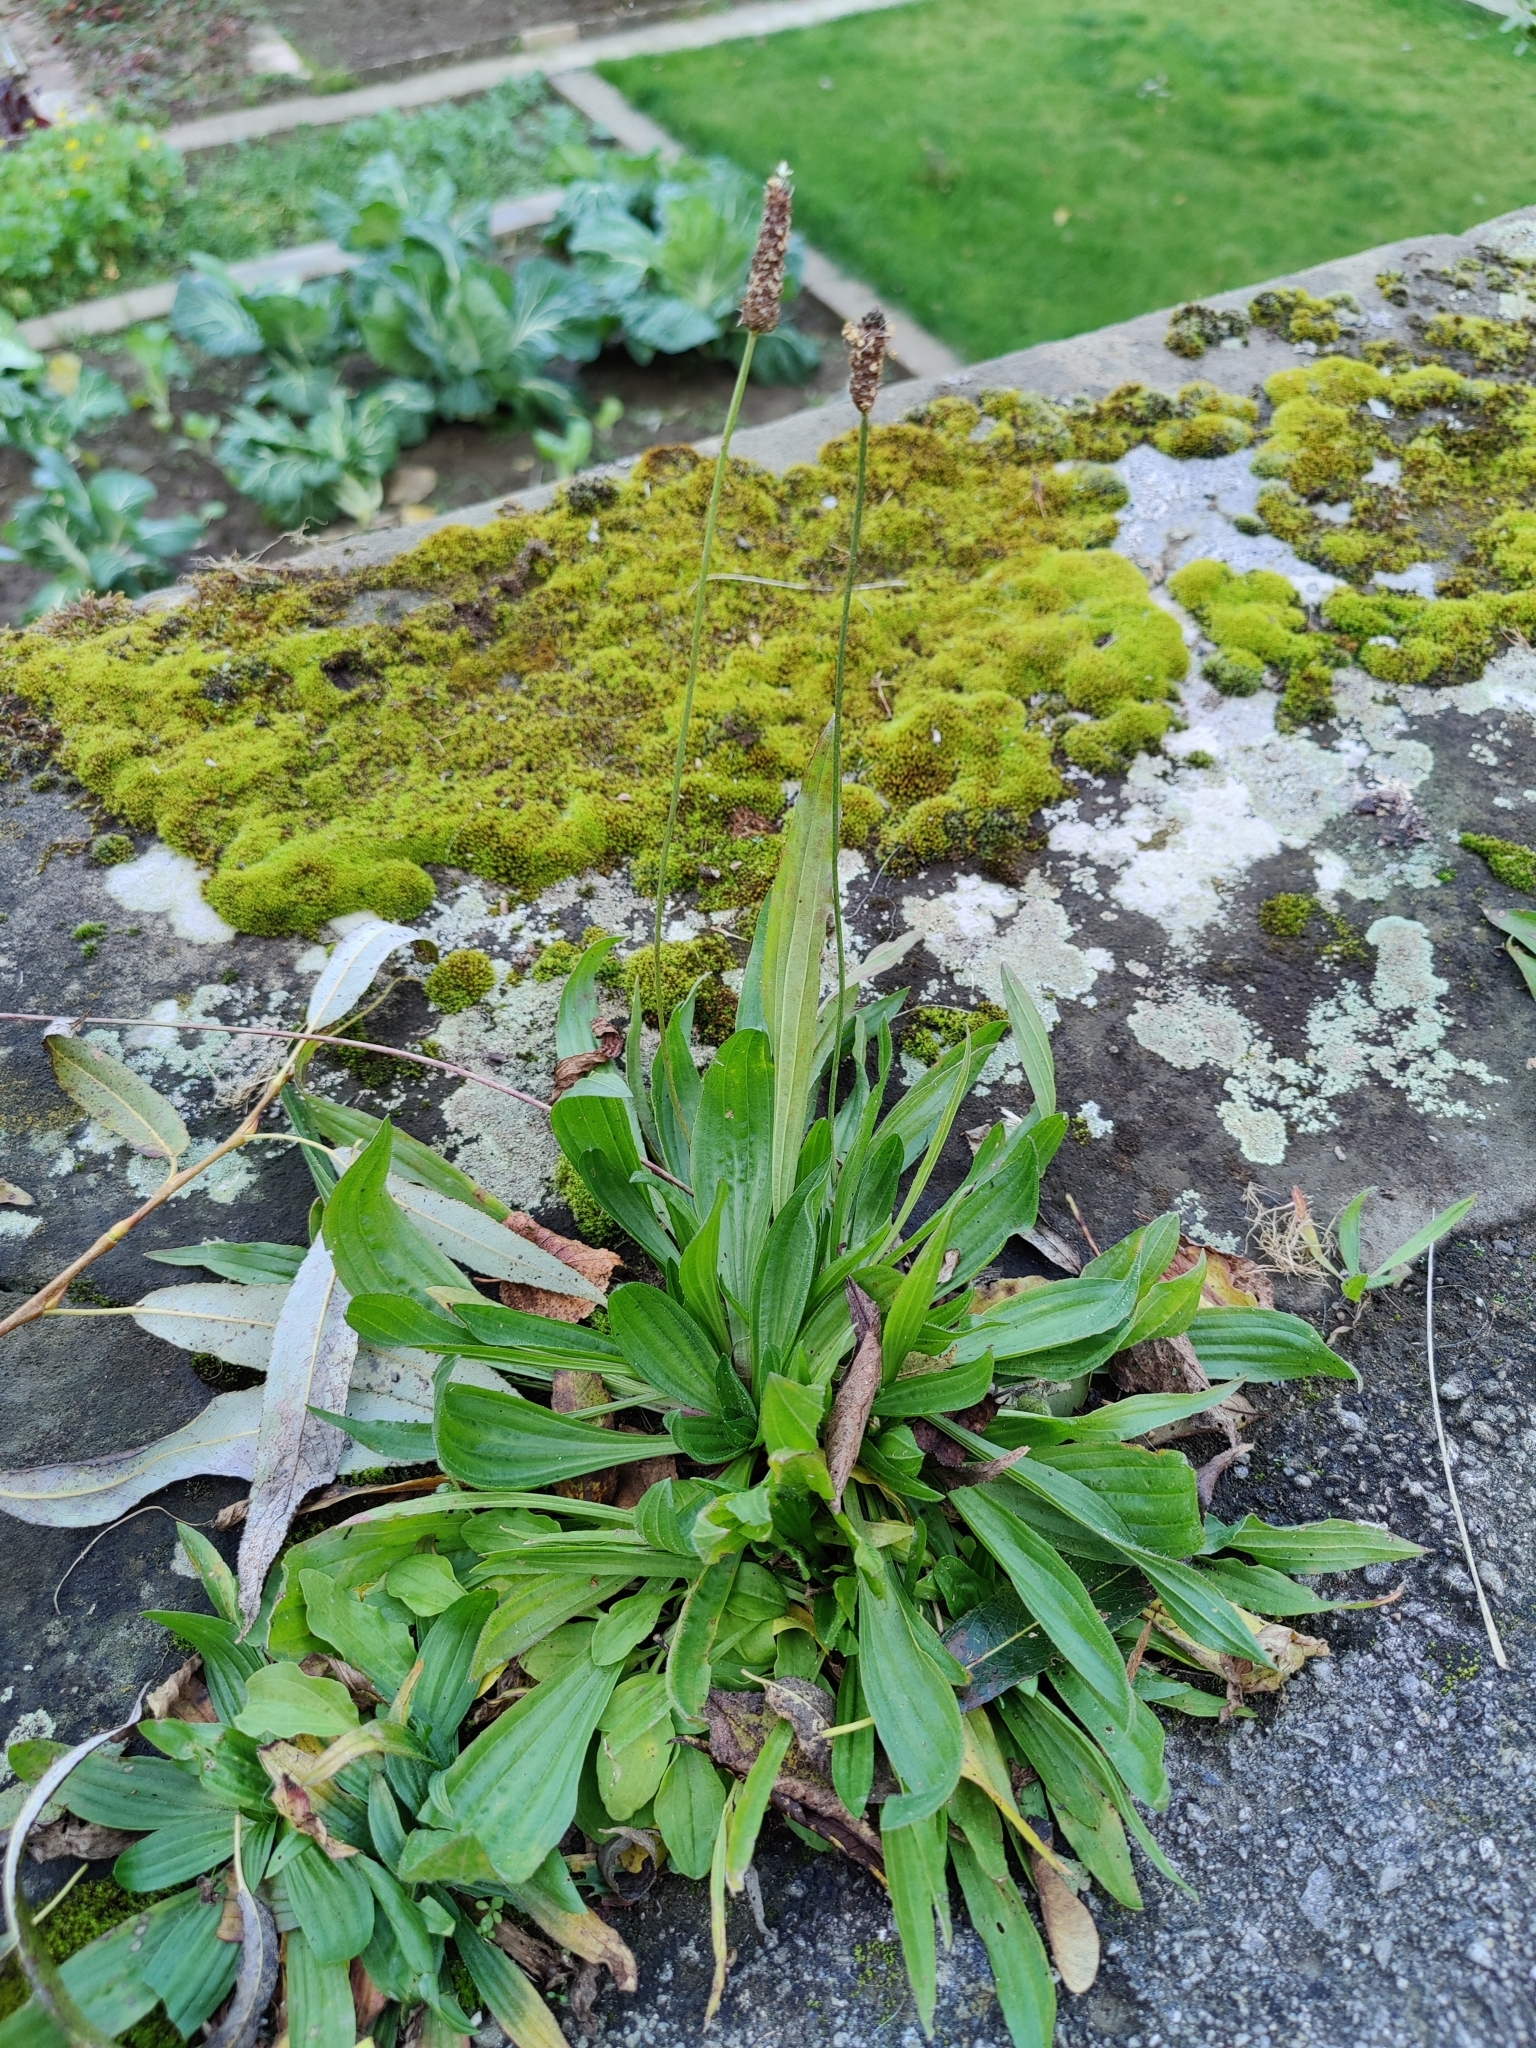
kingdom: Plantae
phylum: Tracheophyta
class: Magnoliopsida
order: Lamiales
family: Plantaginaceae
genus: Plantago
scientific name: Plantago lanceolata
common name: Ribwort plantain
